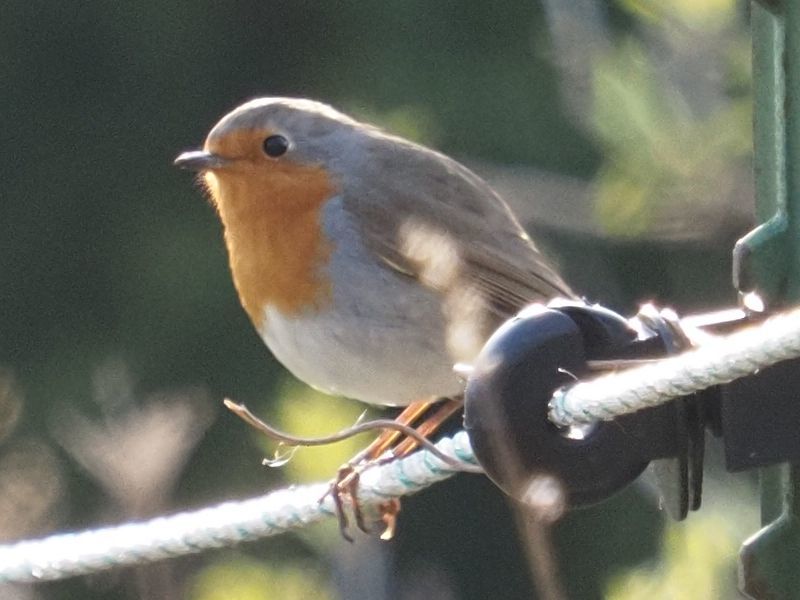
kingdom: Animalia
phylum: Chordata
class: Aves
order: Passeriformes
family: Muscicapidae
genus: Erithacus
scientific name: Erithacus rubecula
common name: European robin
